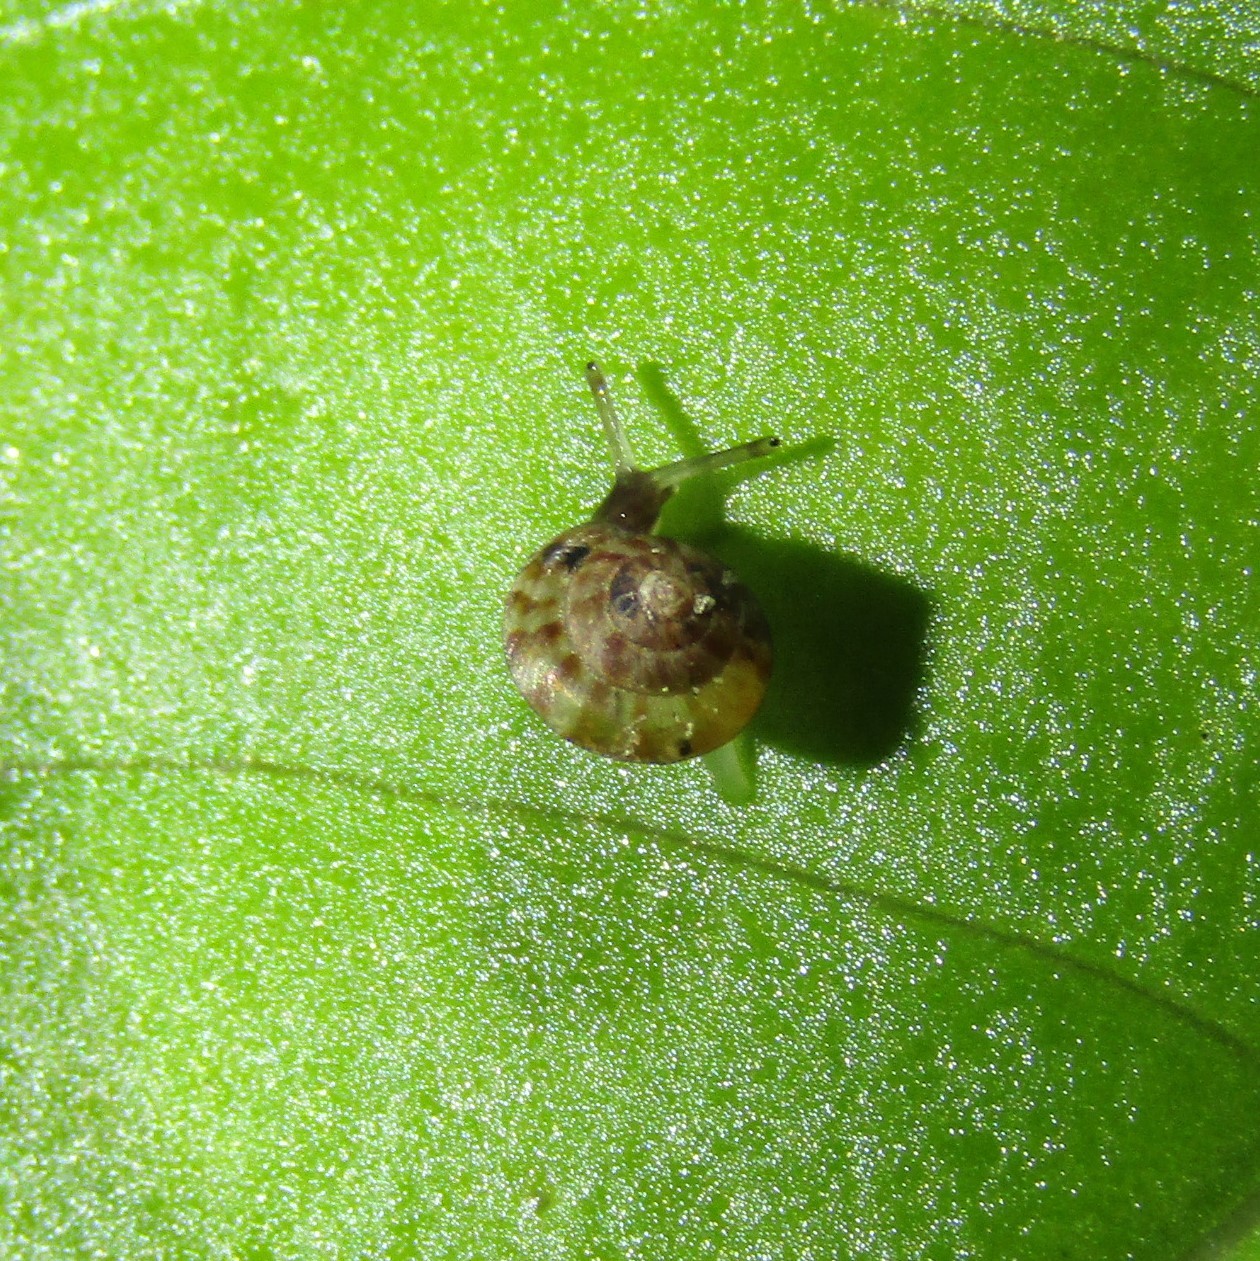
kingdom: Animalia
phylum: Mollusca
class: Gastropoda
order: Stylommatophora
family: Punctidae
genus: Phrixgnathus
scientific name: Phrixgnathus phrynia
